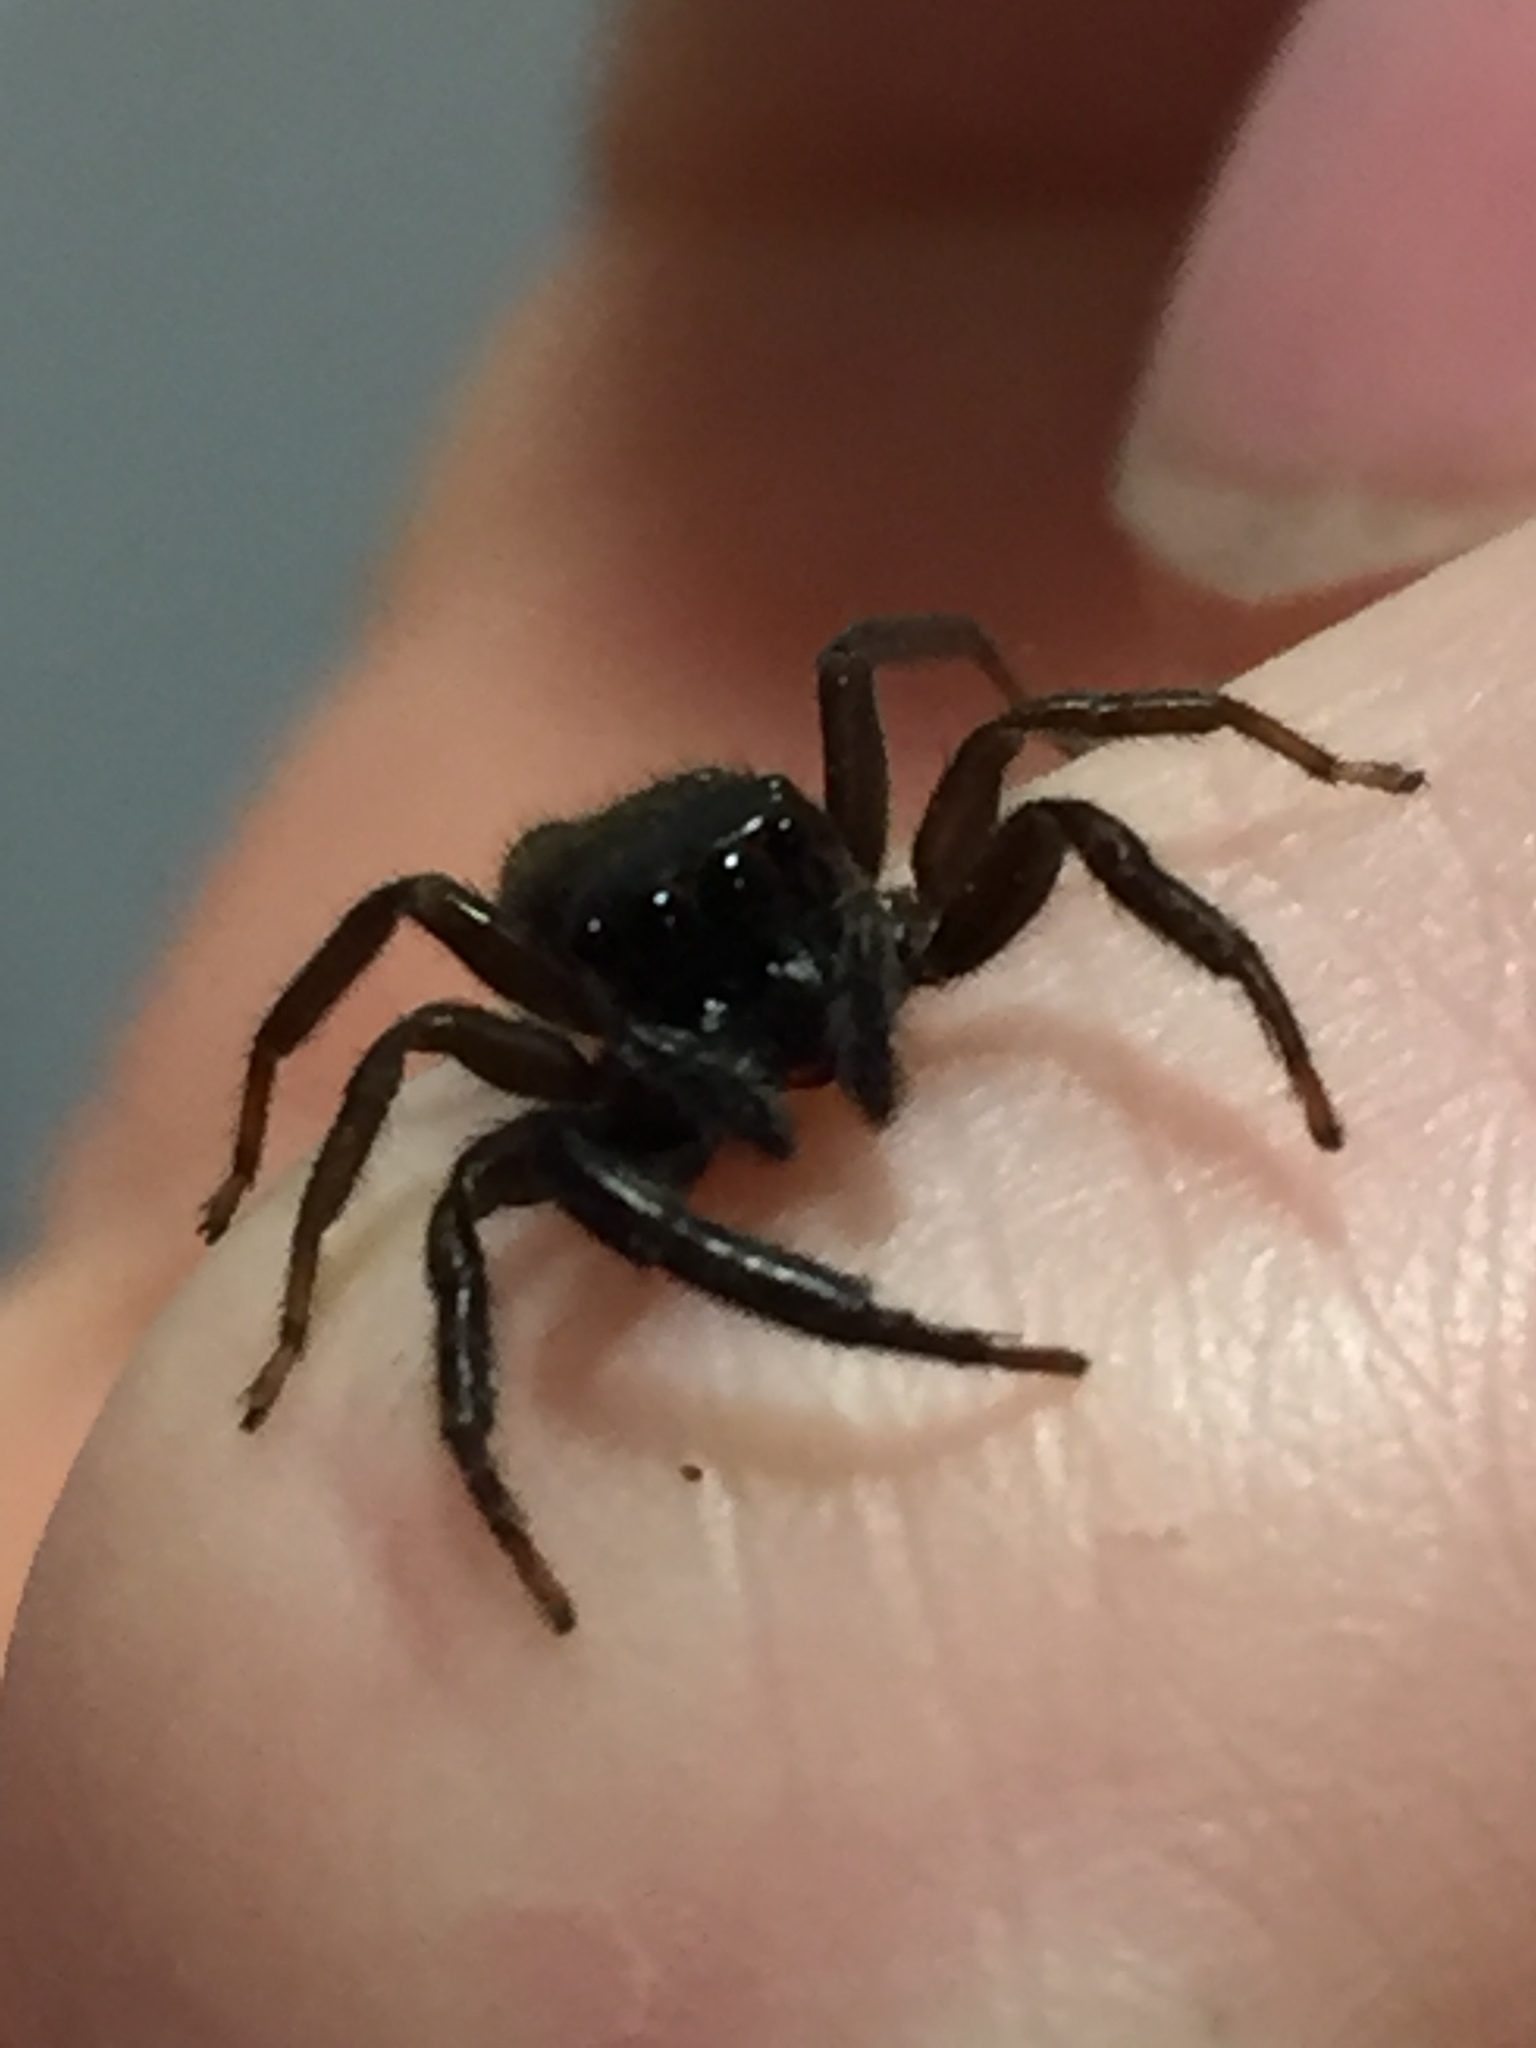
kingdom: Animalia
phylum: Arthropoda
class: Arachnida
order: Araneae
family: Salticidae
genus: Trite
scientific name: Trite auricoma
